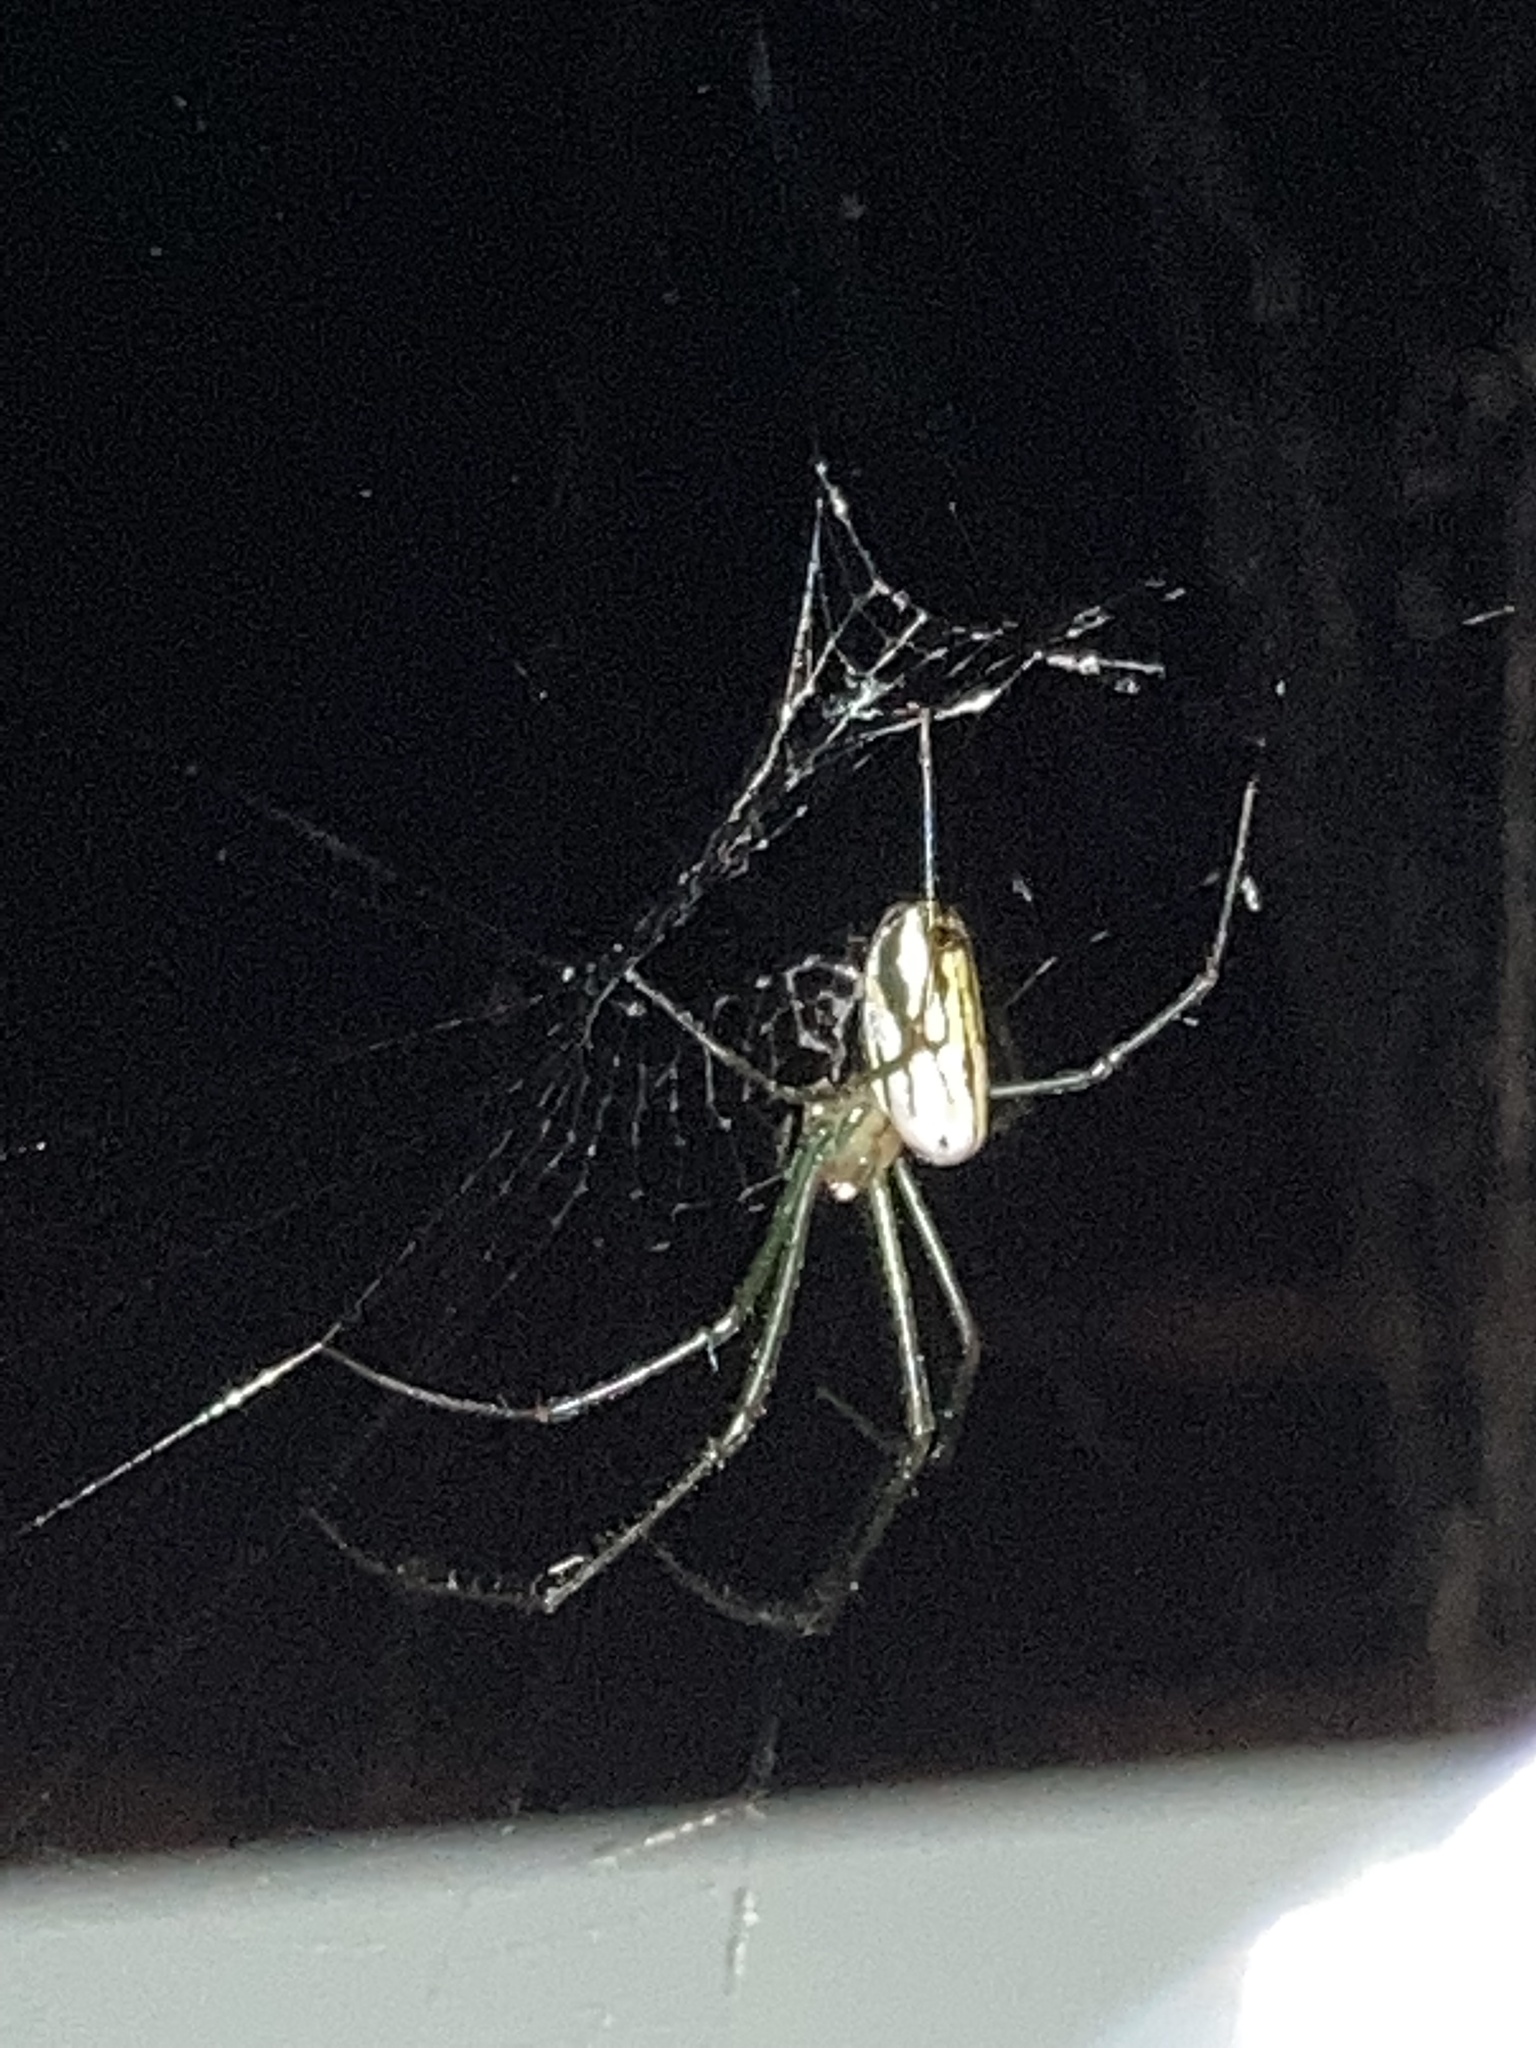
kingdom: Animalia
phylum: Arthropoda
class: Arachnida
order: Araneae
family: Tetragnathidae
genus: Leucauge
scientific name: Leucauge argyra
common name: Longjawed orb weavers
